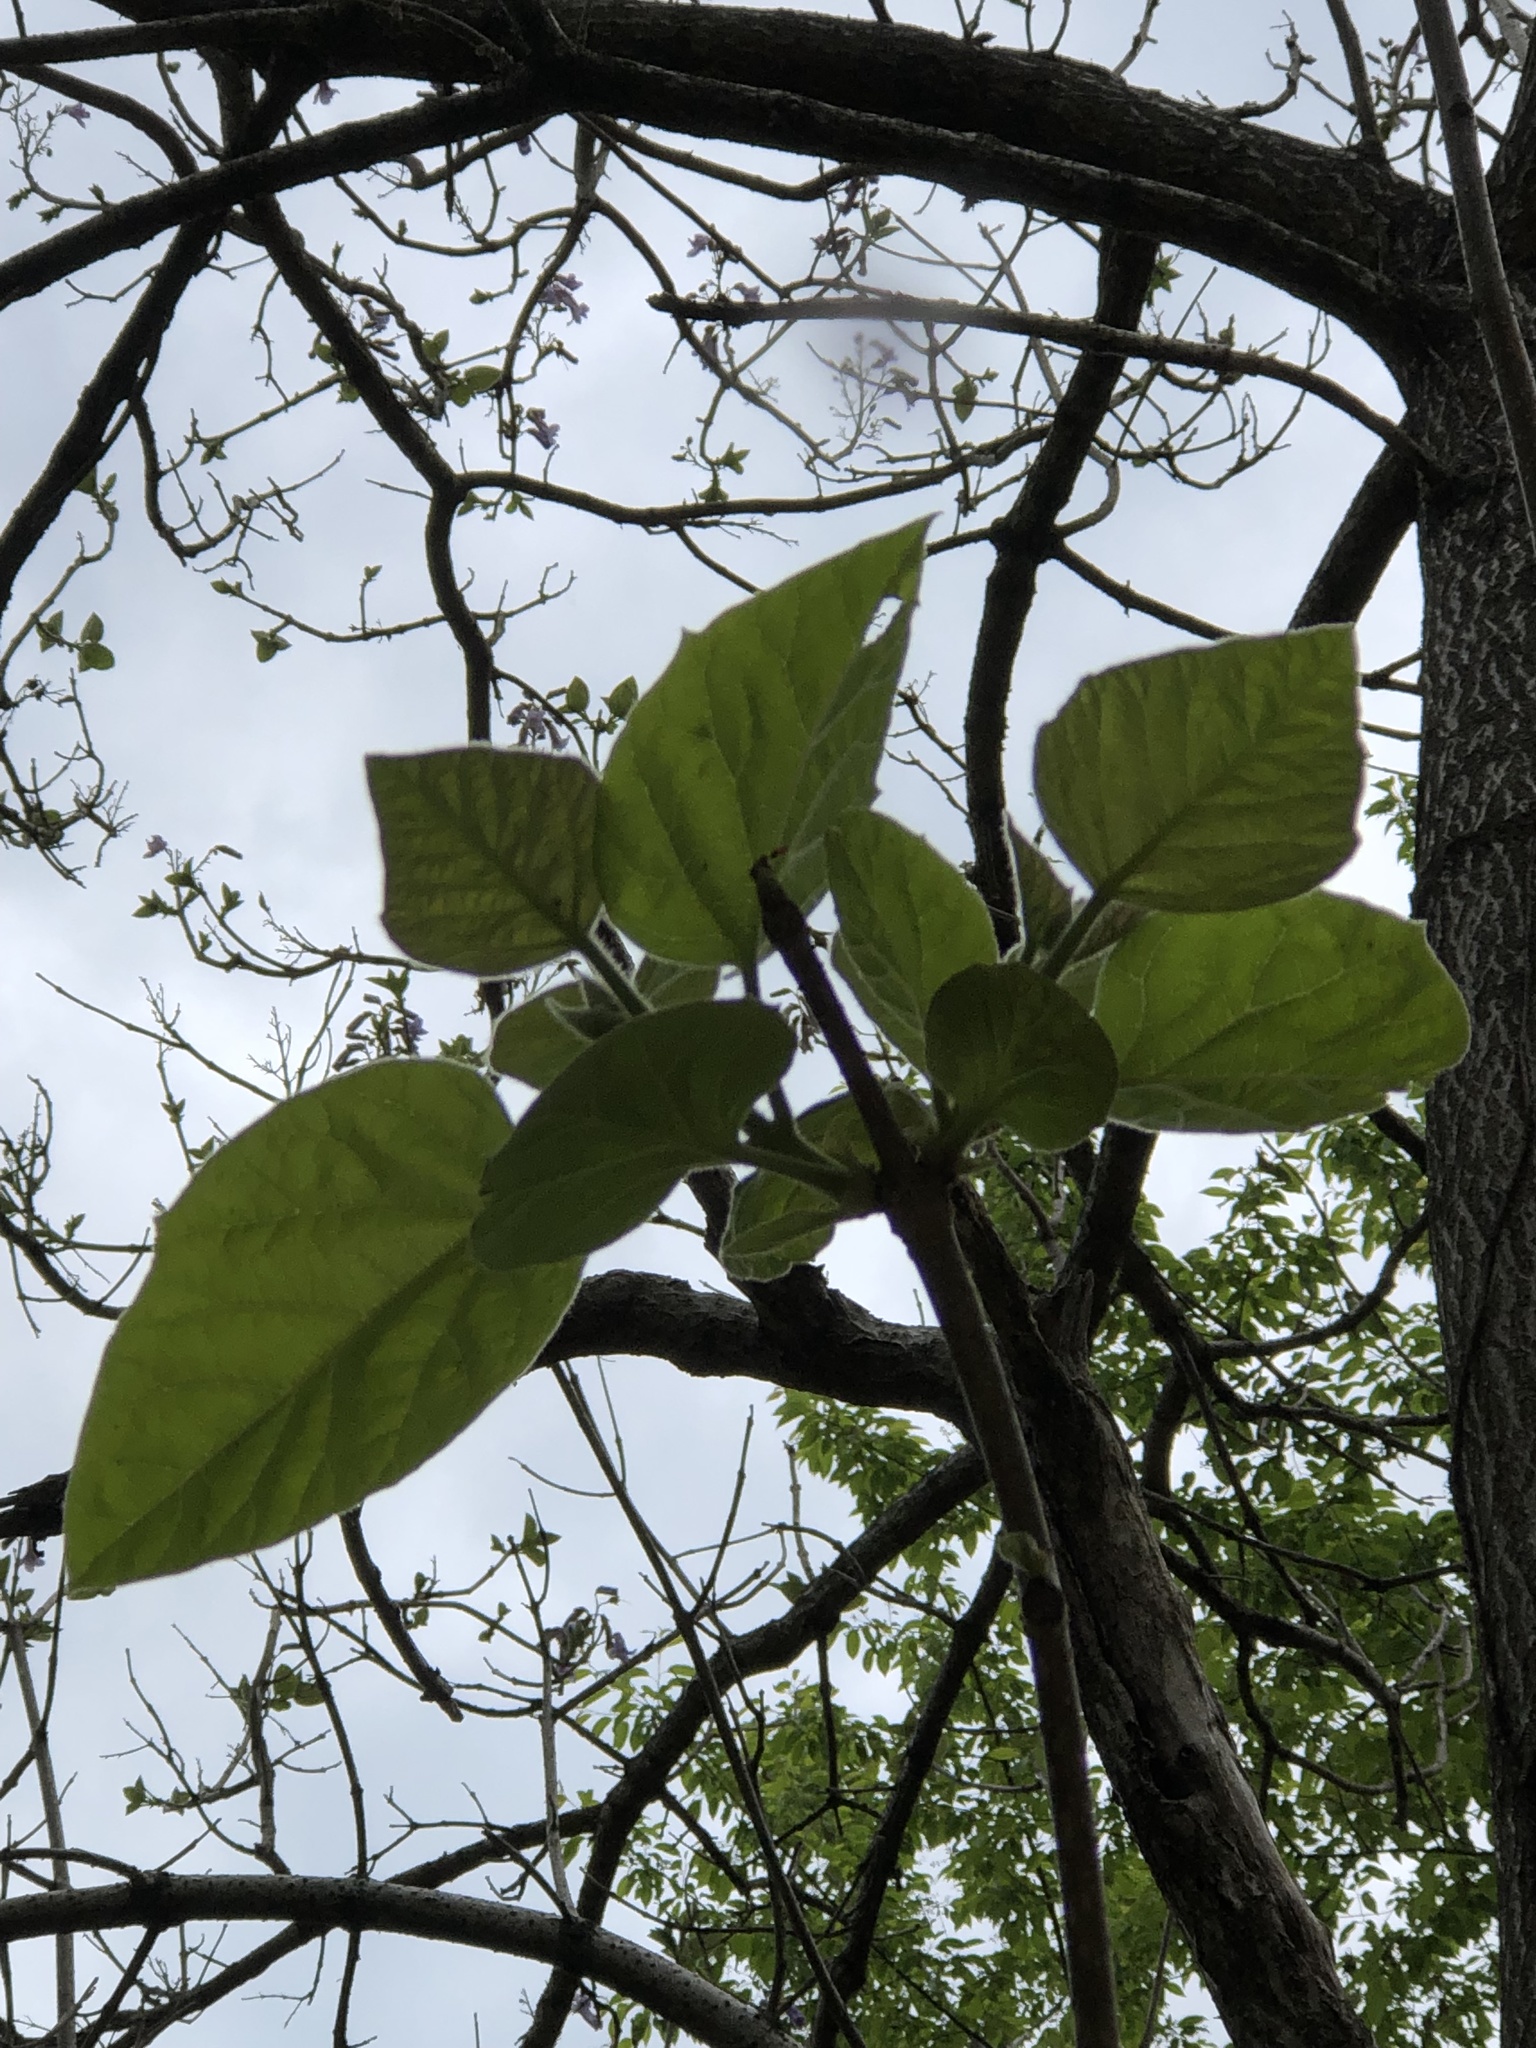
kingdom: Plantae
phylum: Tracheophyta
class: Magnoliopsida
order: Lamiales
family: Paulowniaceae
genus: Paulownia
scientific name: Paulownia tomentosa
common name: Foxglove-tree
